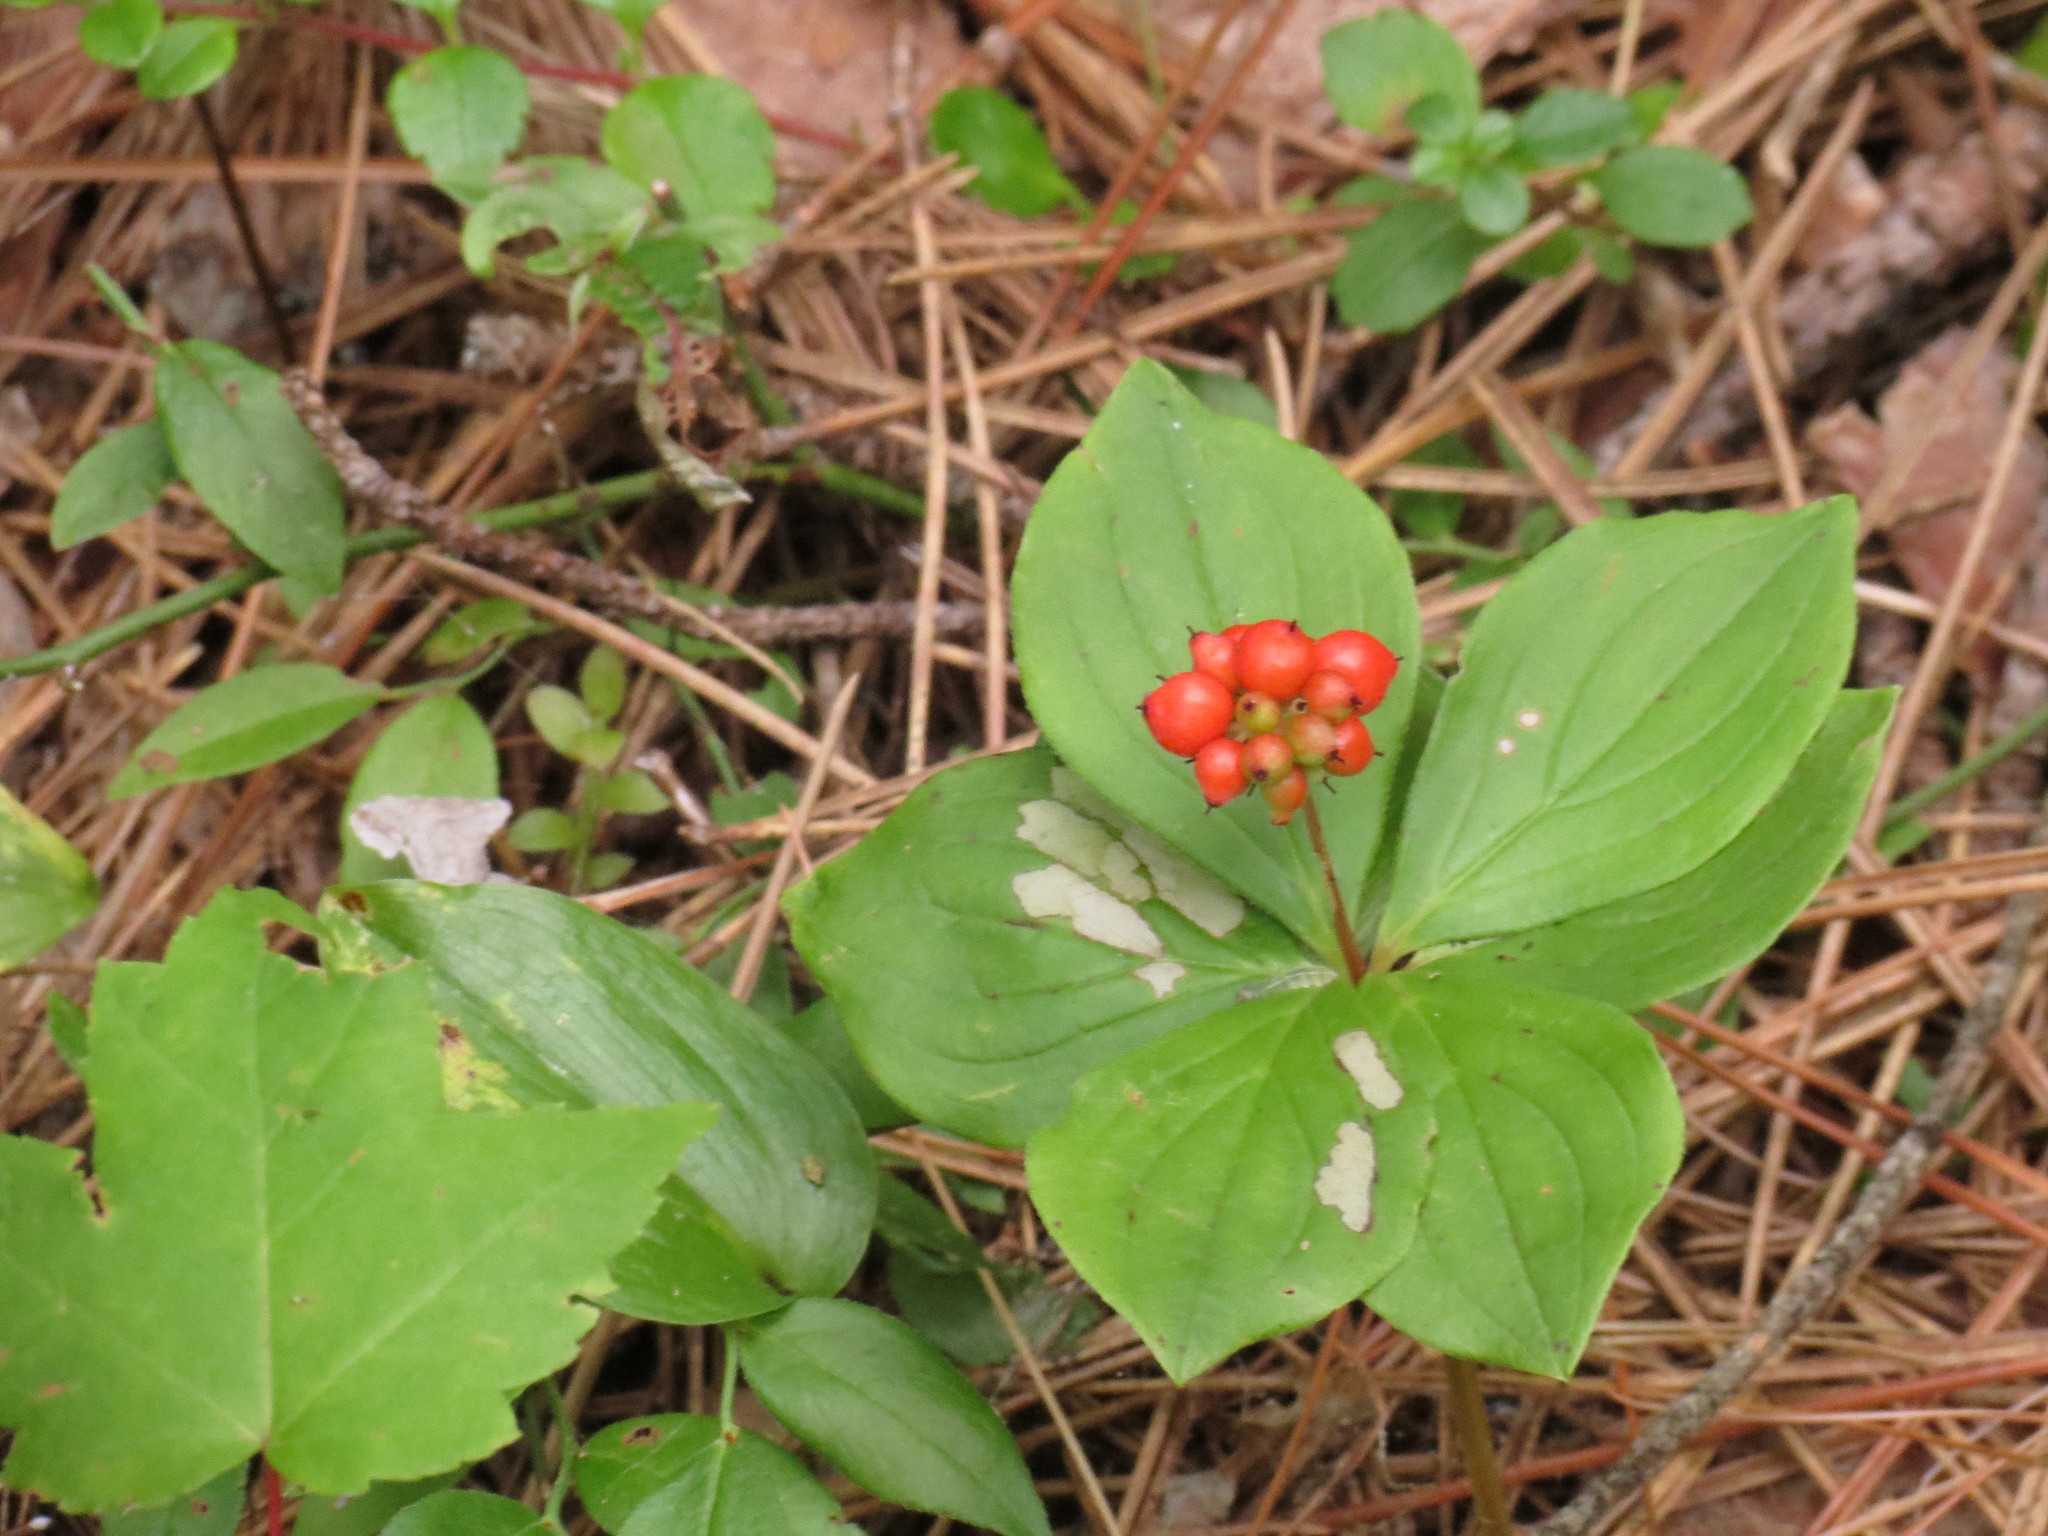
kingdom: Plantae
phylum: Tracheophyta
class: Magnoliopsida
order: Cornales
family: Cornaceae
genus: Cornus
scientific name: Cornus canadensis
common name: Creeping dogwood
